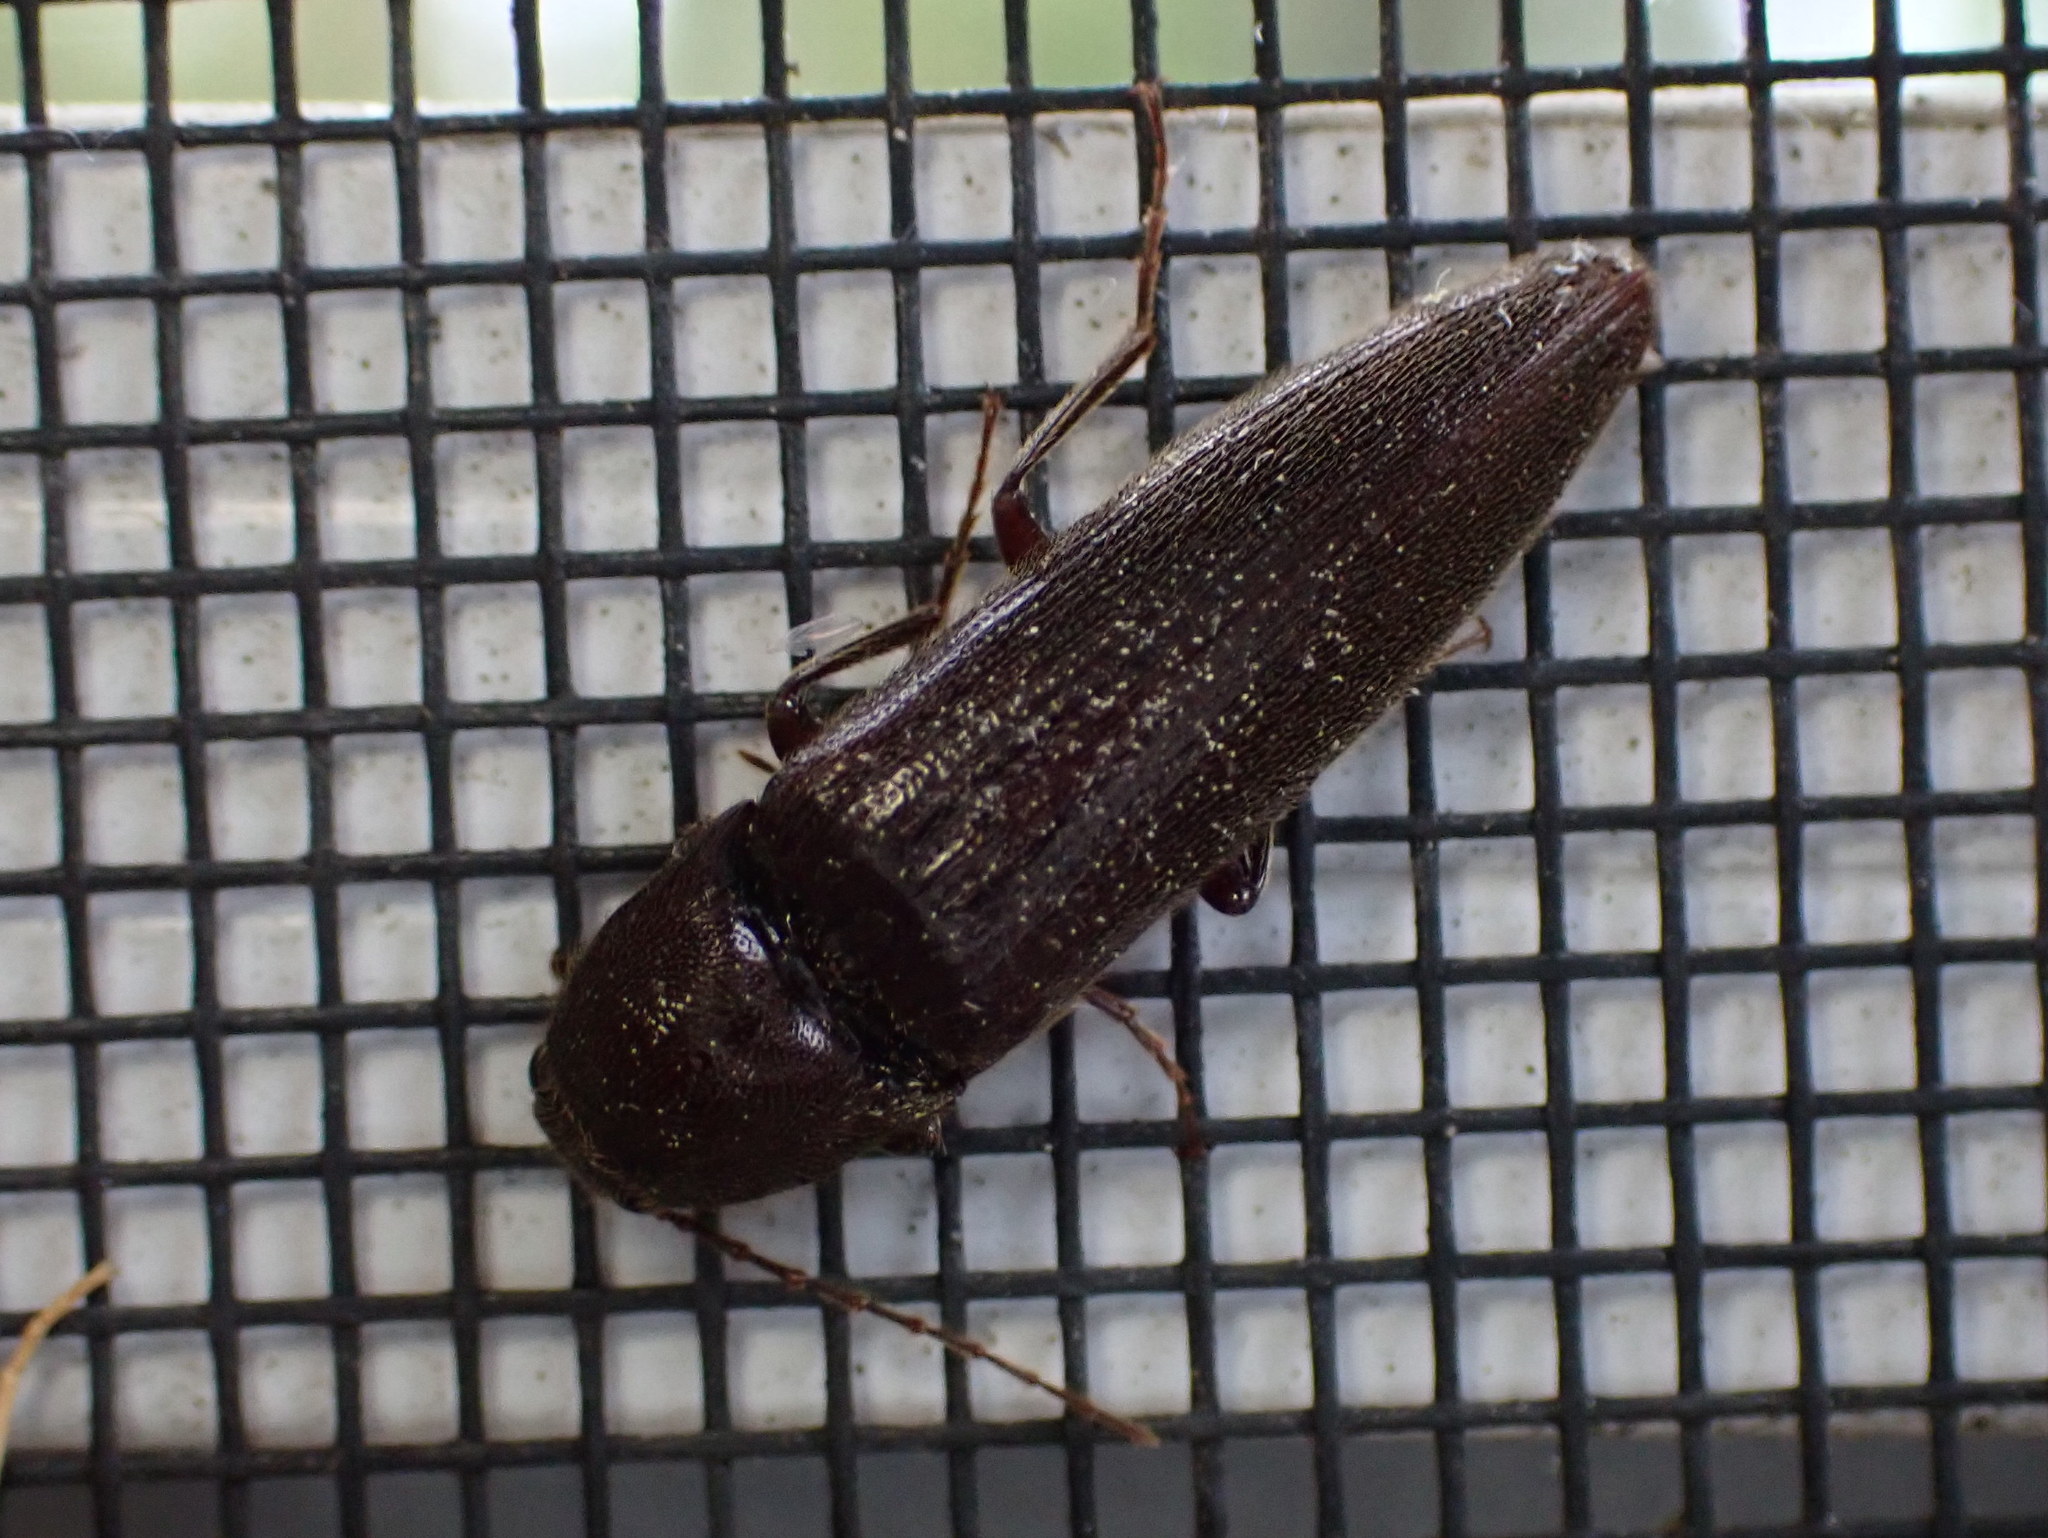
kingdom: Animalia
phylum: Arthropoda
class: Insecta
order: Coleoptera
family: Elateridae
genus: Melanotus
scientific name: Melanotus castanipes
